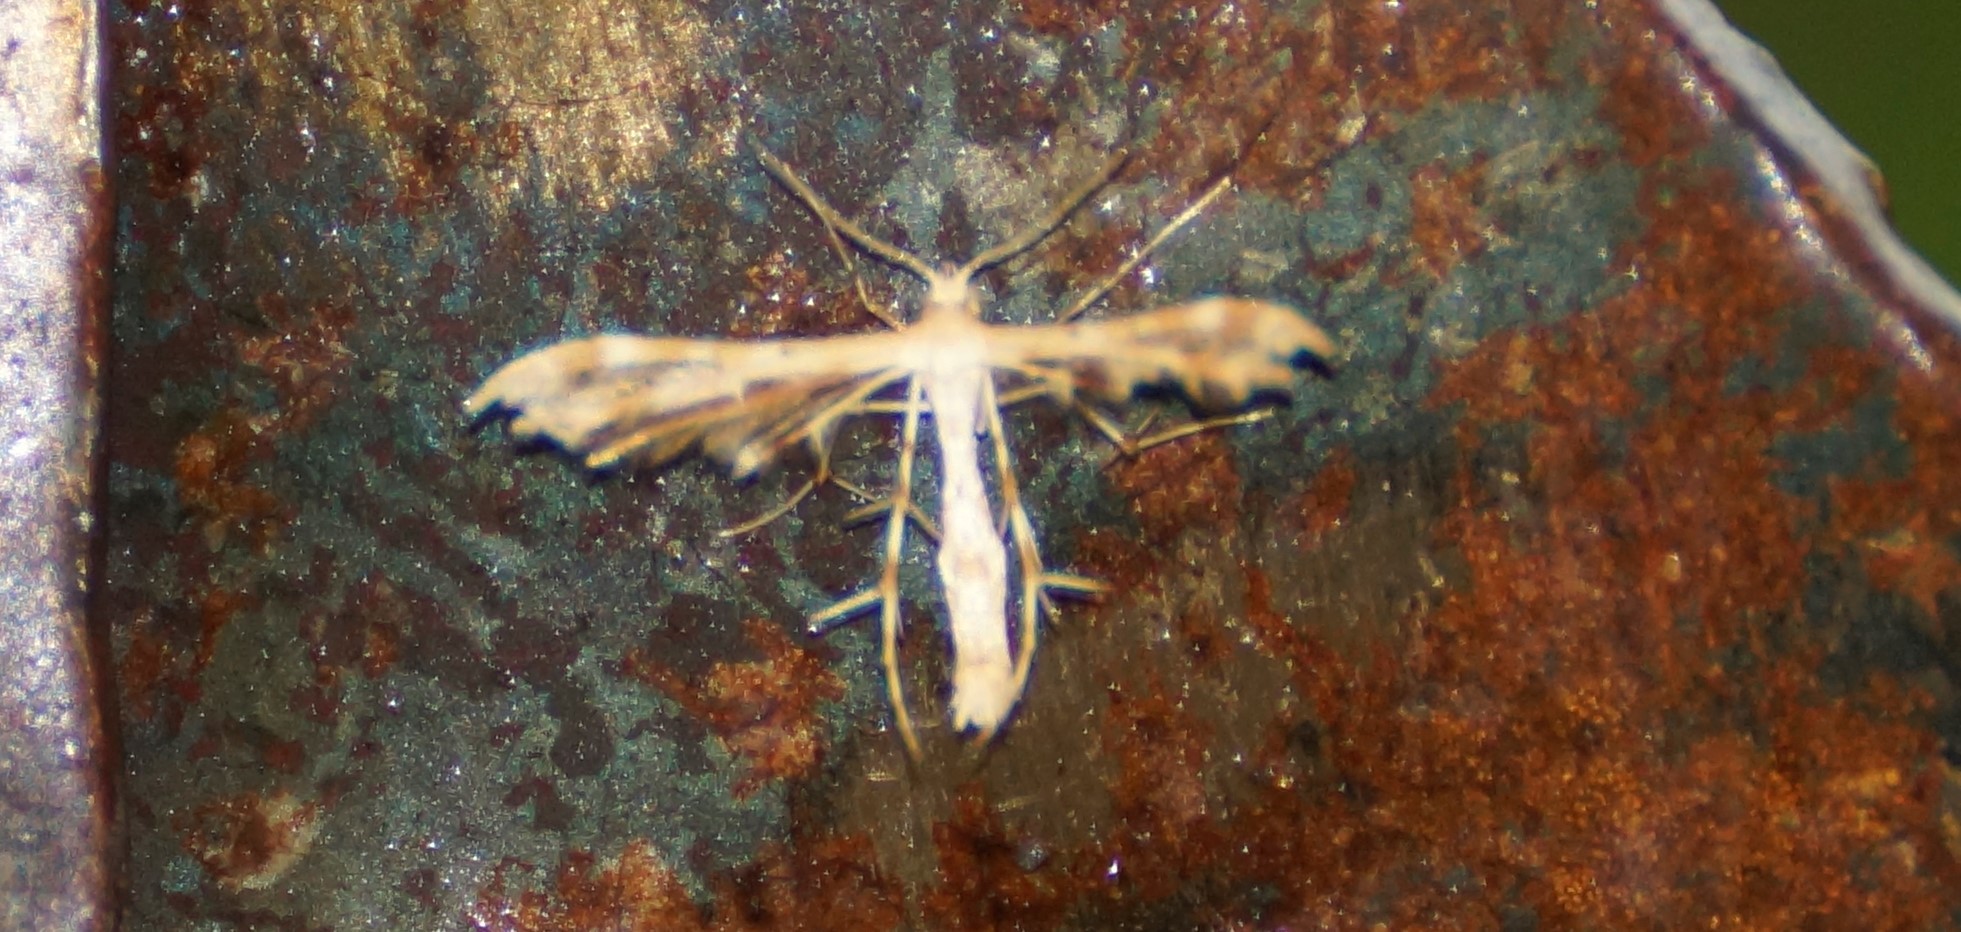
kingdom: Animalia
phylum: Arthropoda
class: Insecta
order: Lepidoptera
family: Pterophoridae
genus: Sphenarches
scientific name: Sphenarches anisodactylus
